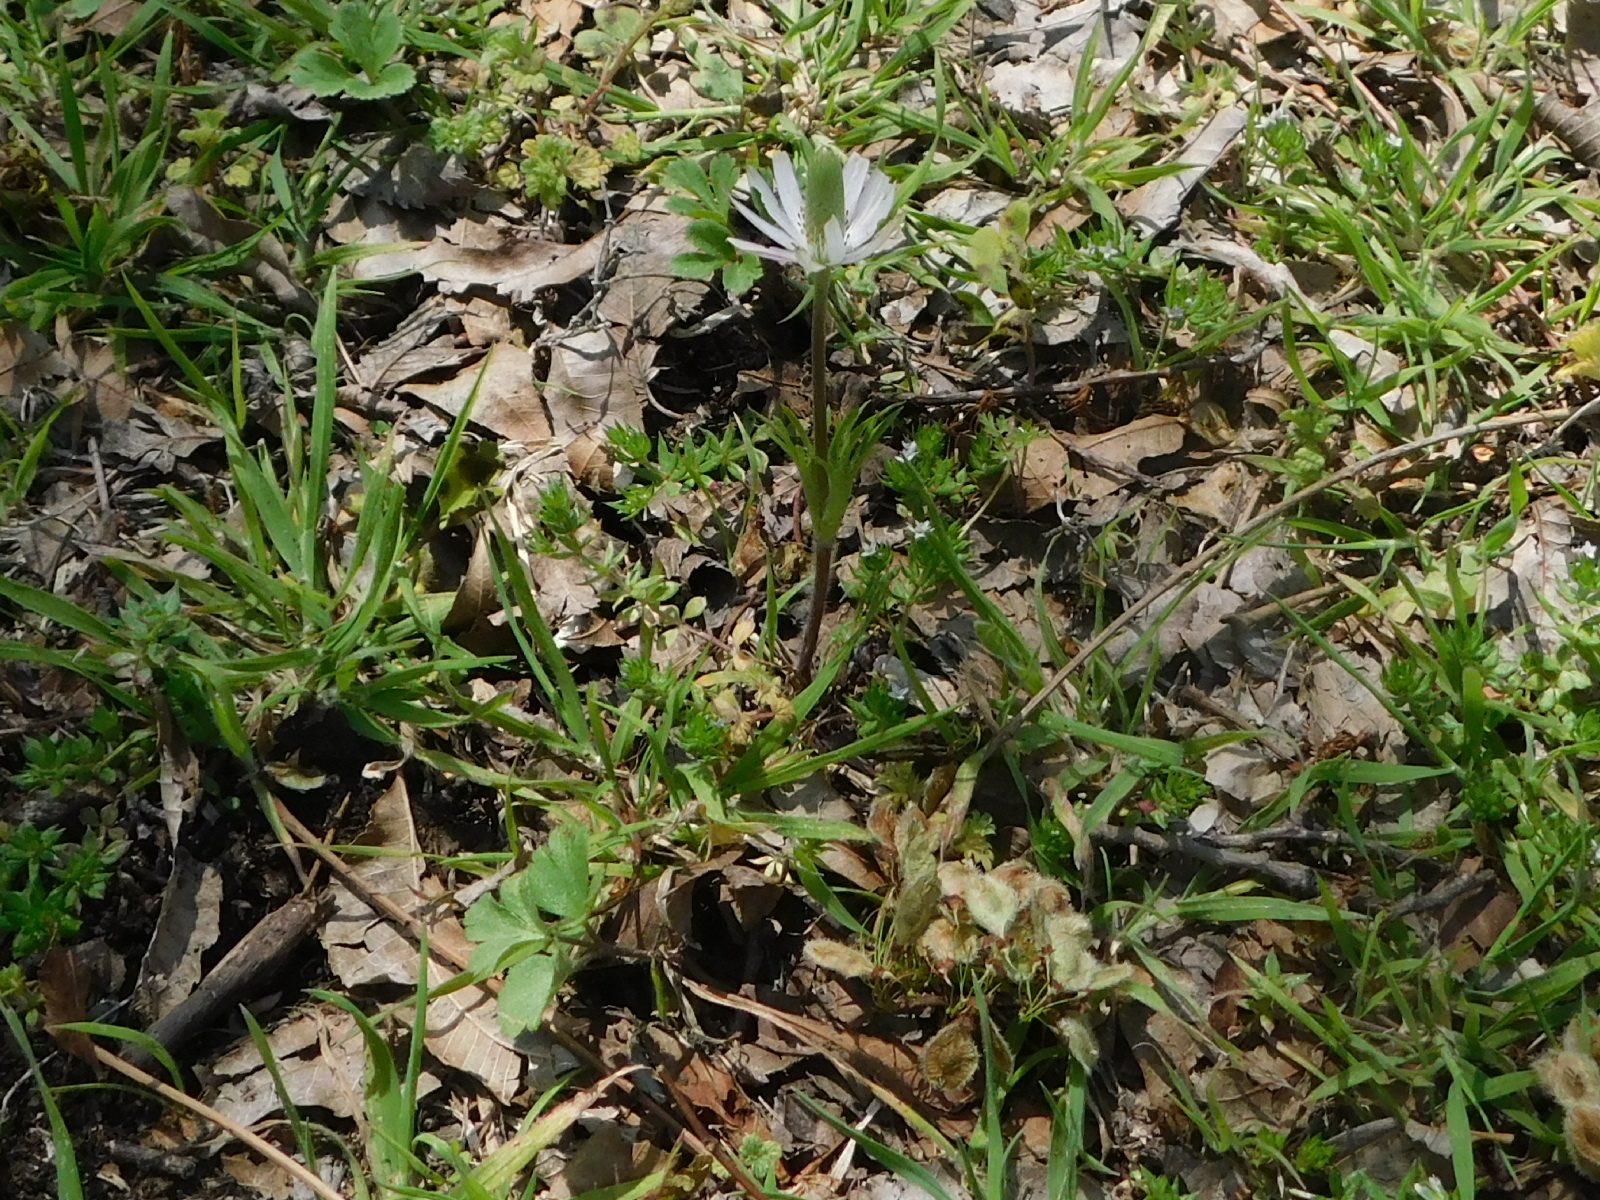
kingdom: Plantae
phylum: Tracheophyta
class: Magnoliopsida
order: Ranunculales
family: Ranunculaceae
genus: Anemone
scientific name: Anemone berlandieri
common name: Ten-petal anemone
